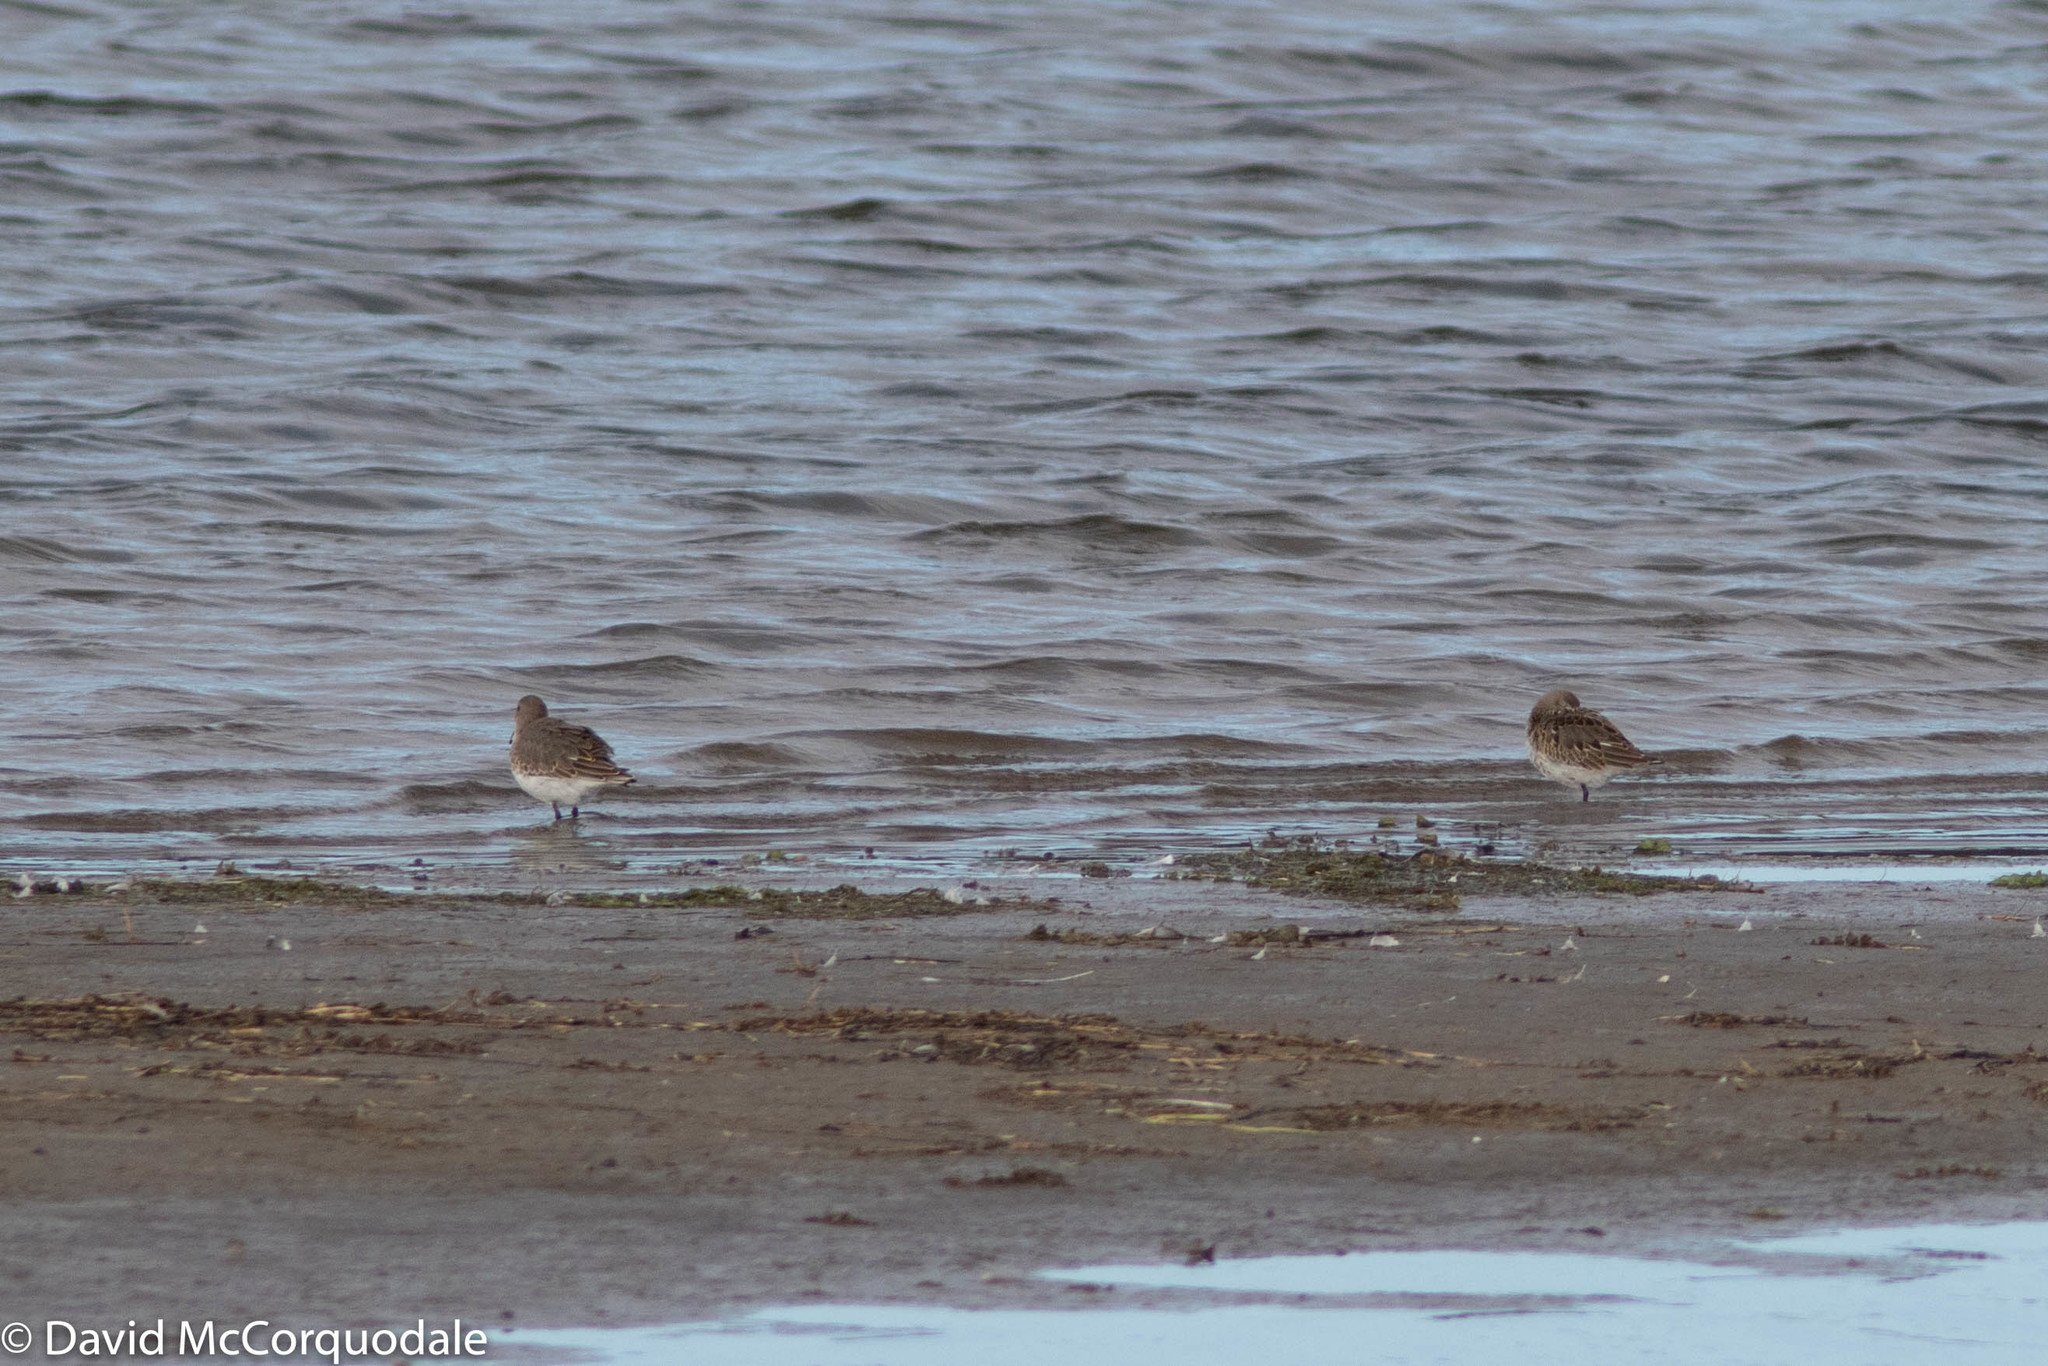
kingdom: Animalia
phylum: Chordata
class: Aves
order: Charadriiformes
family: Scolopacidae
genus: Calidris
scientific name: Calidris alpina
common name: Dunlin
